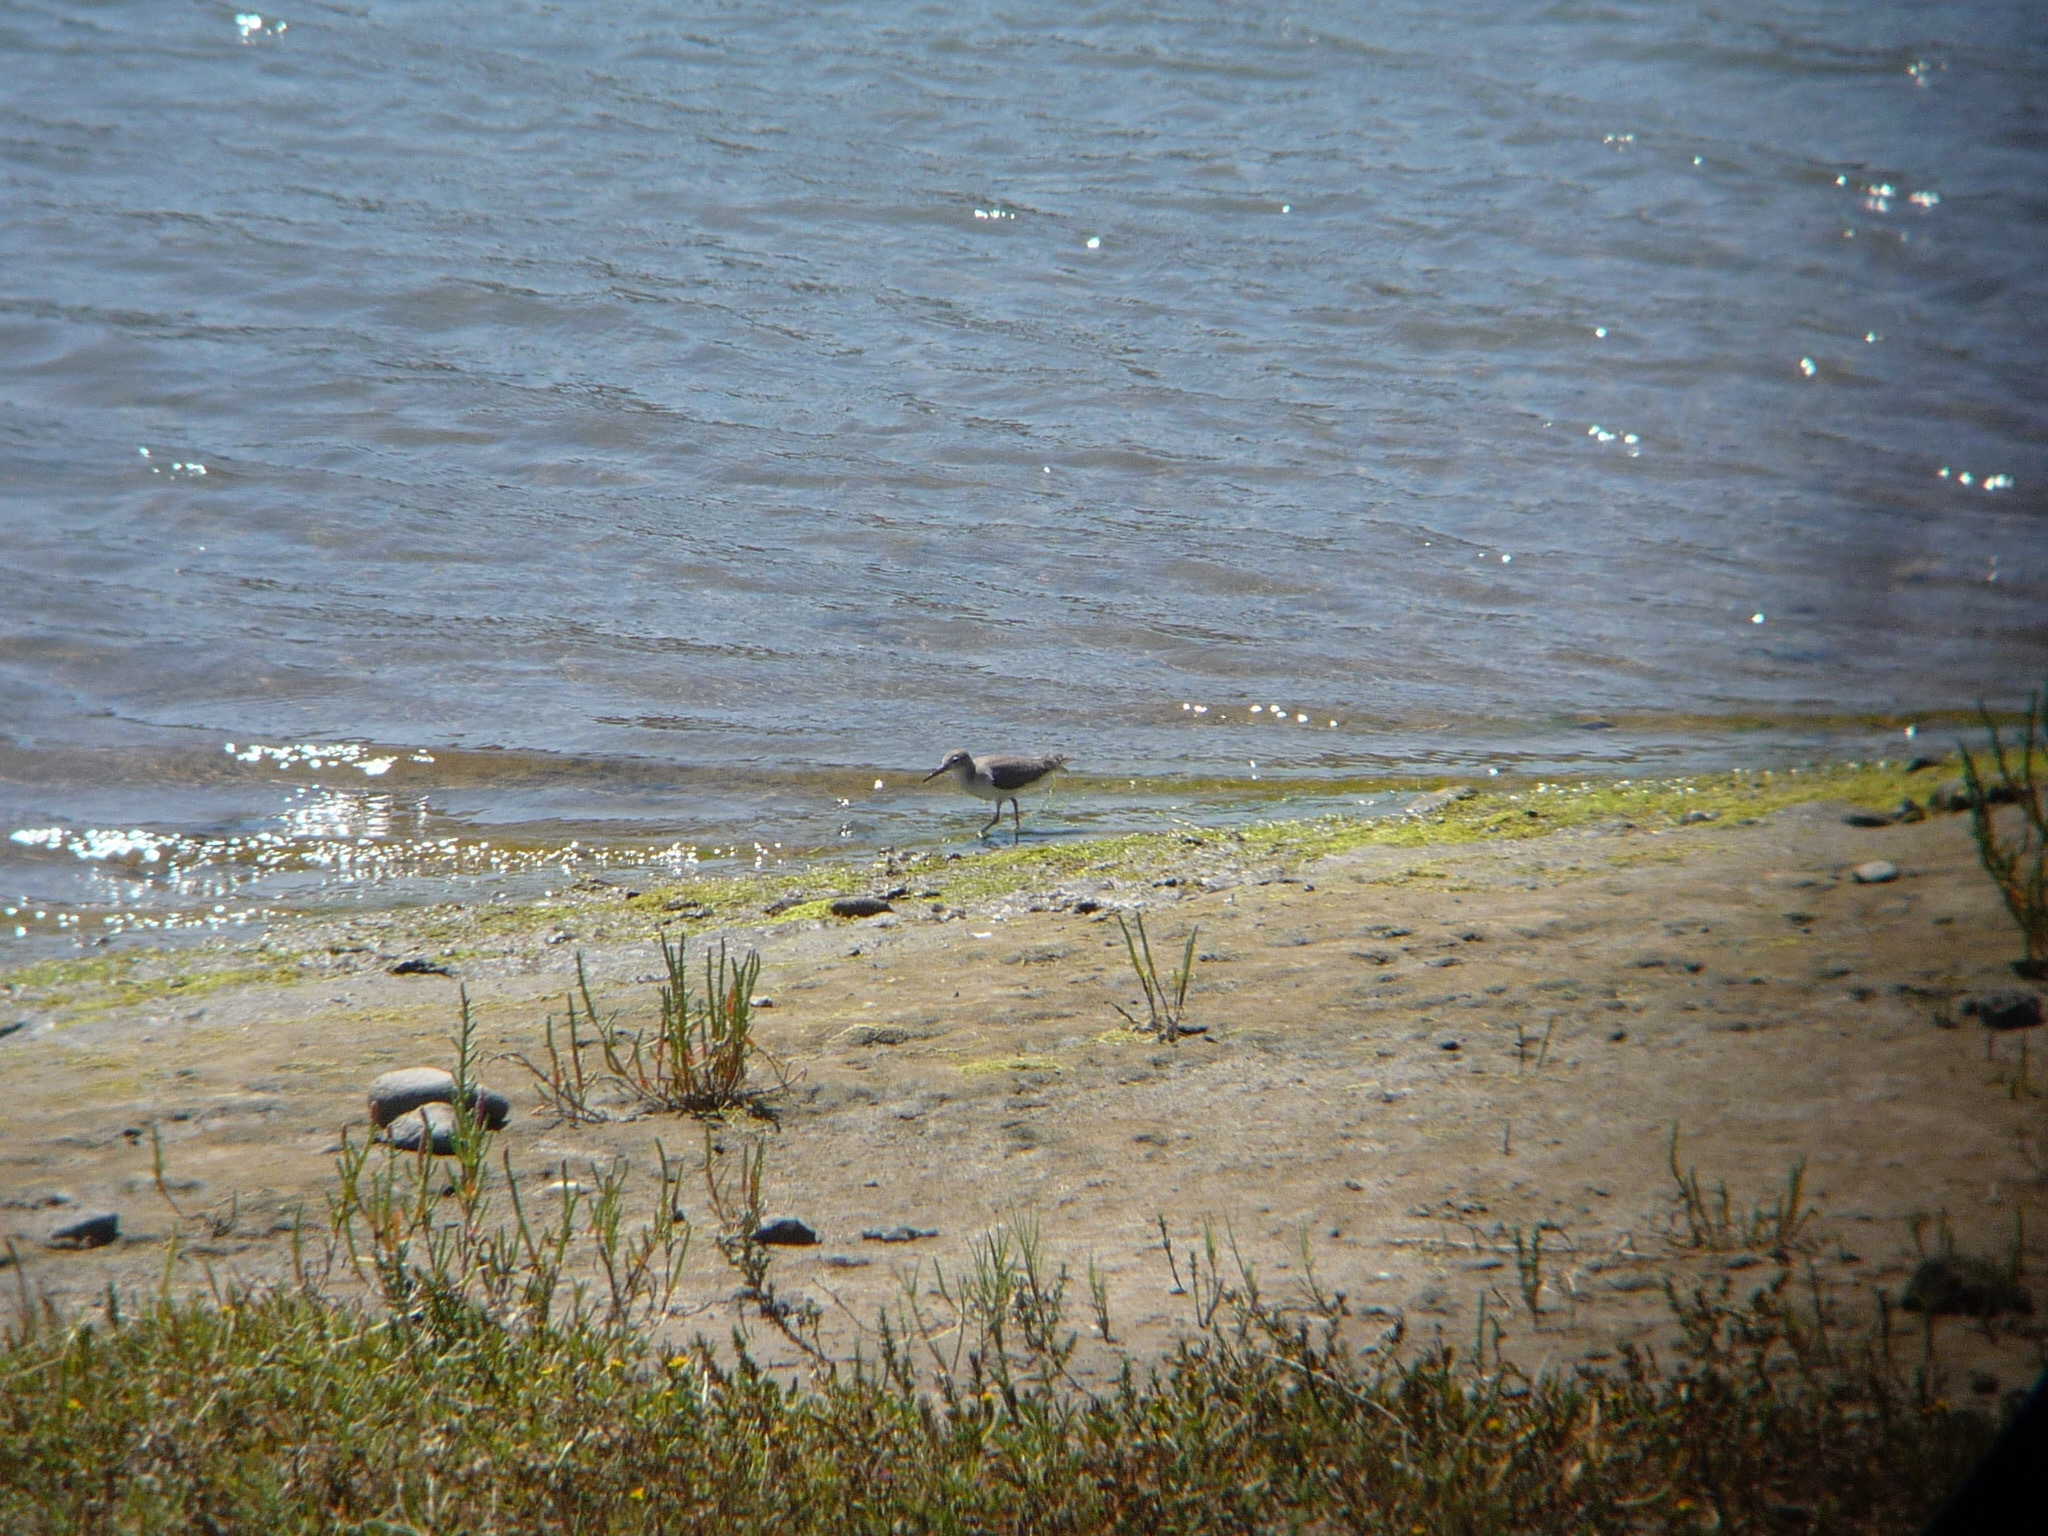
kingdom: Animalia
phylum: Chordata
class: Aves
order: Charadriiformes
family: Scolopacidae
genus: Actitis
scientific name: Actitis macularius
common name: Spotted sandpiper
